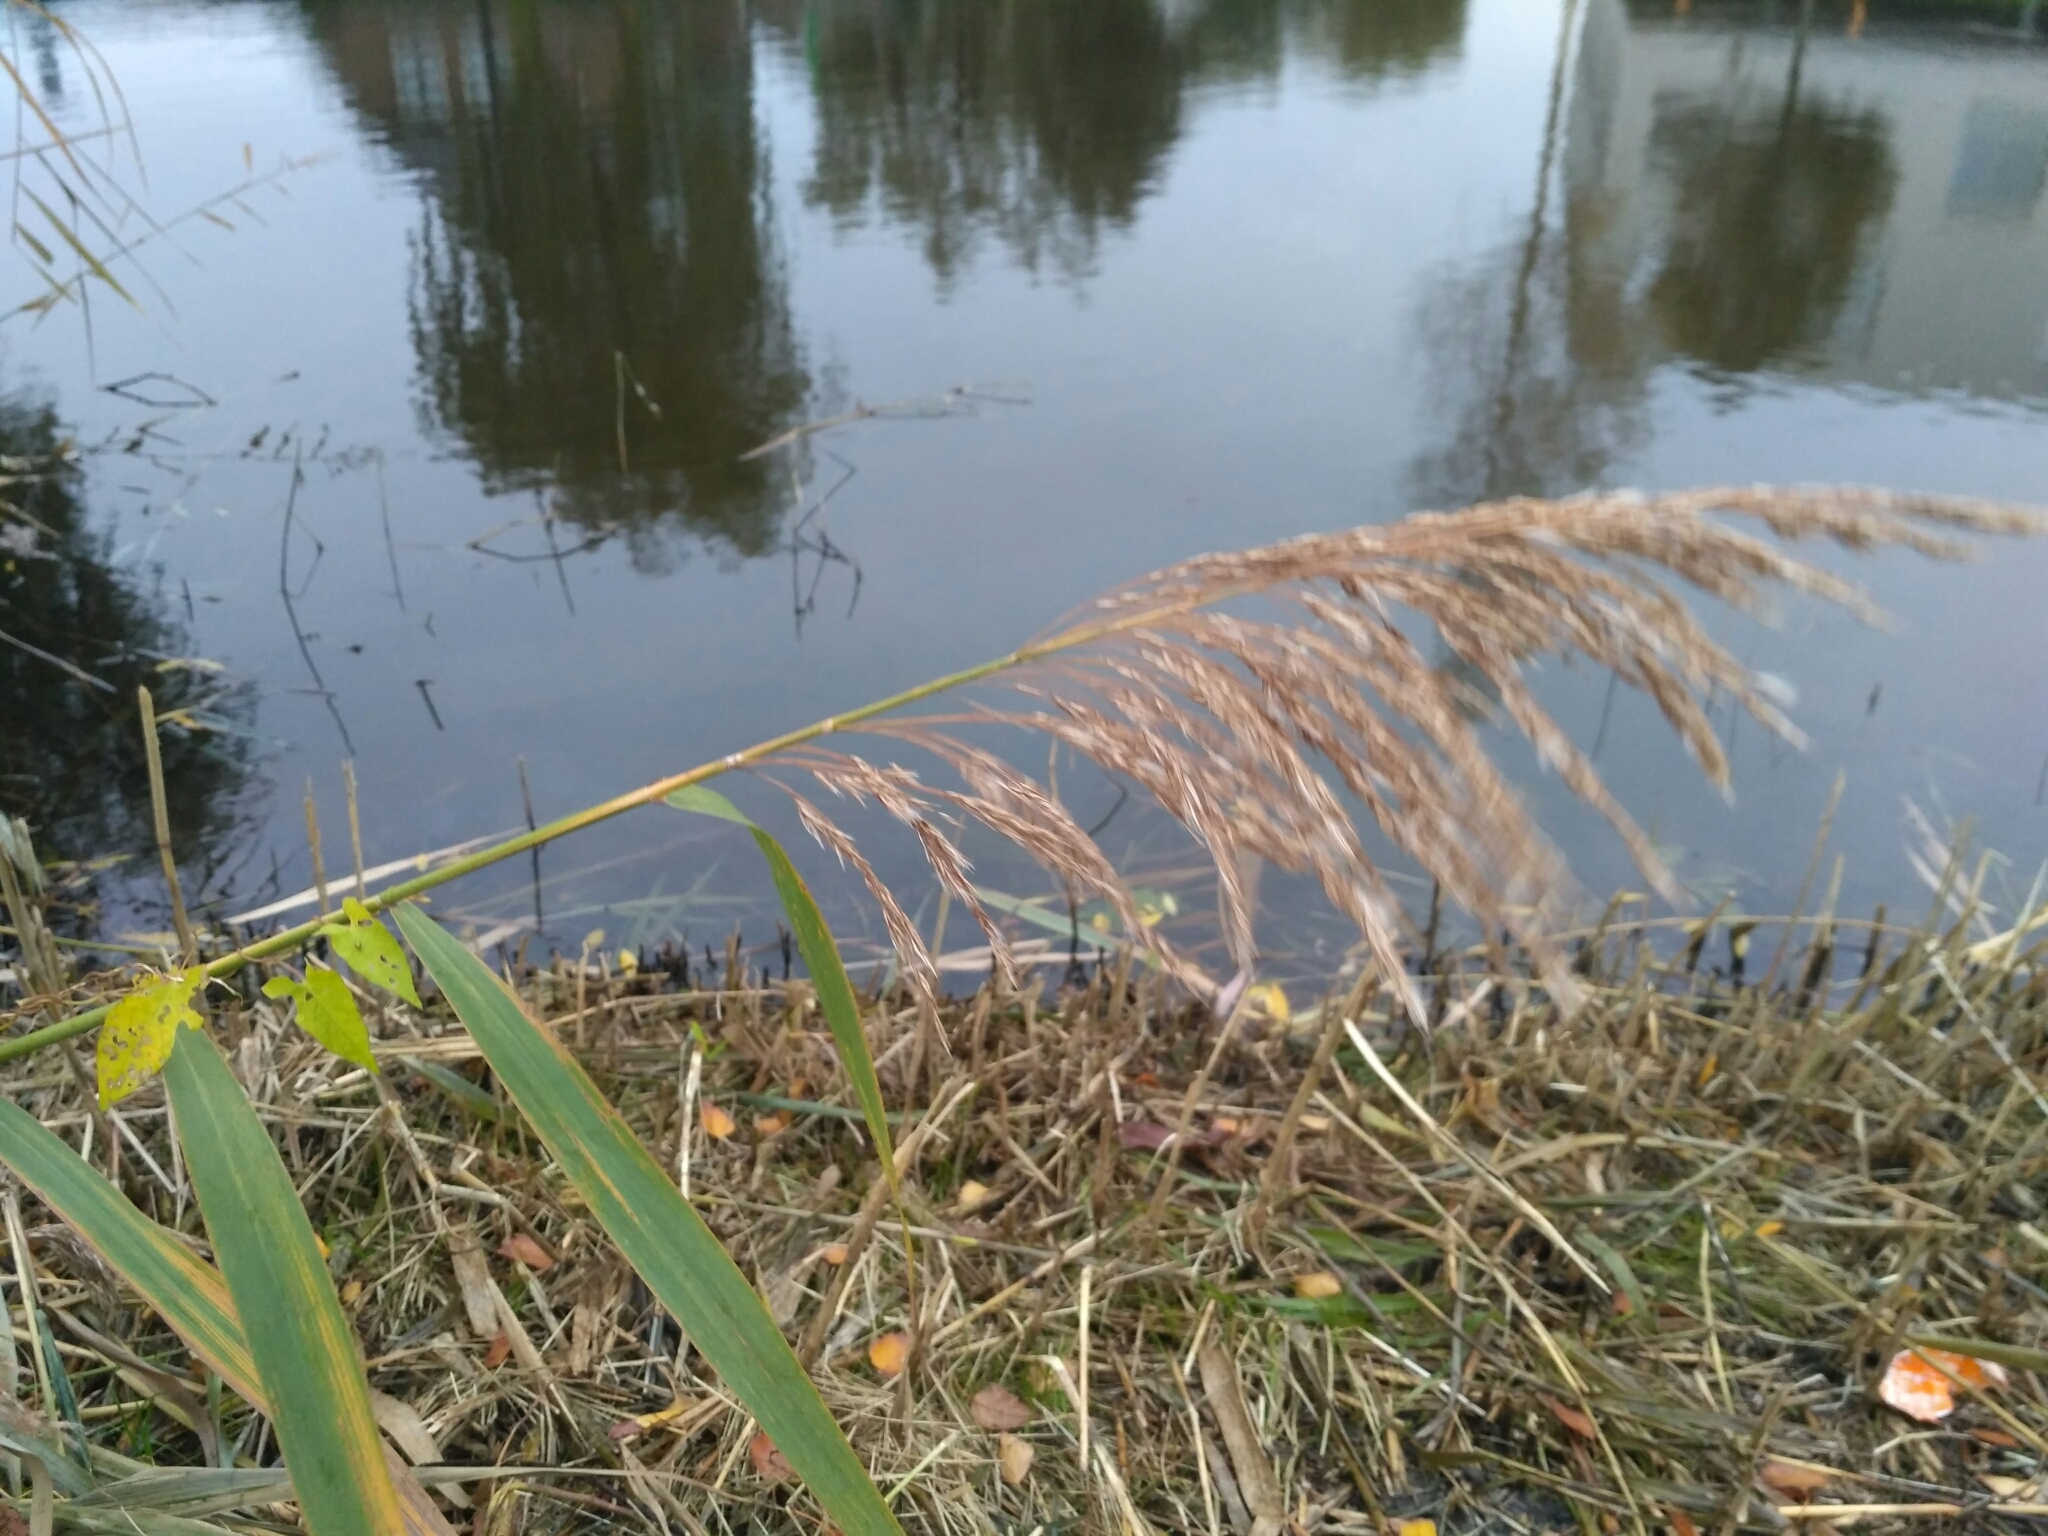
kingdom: Plantae
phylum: Tracheophyta
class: Liliopsida
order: Poales
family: Poaceae
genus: Phragmites
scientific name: Phragmites australis
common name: Common reed
